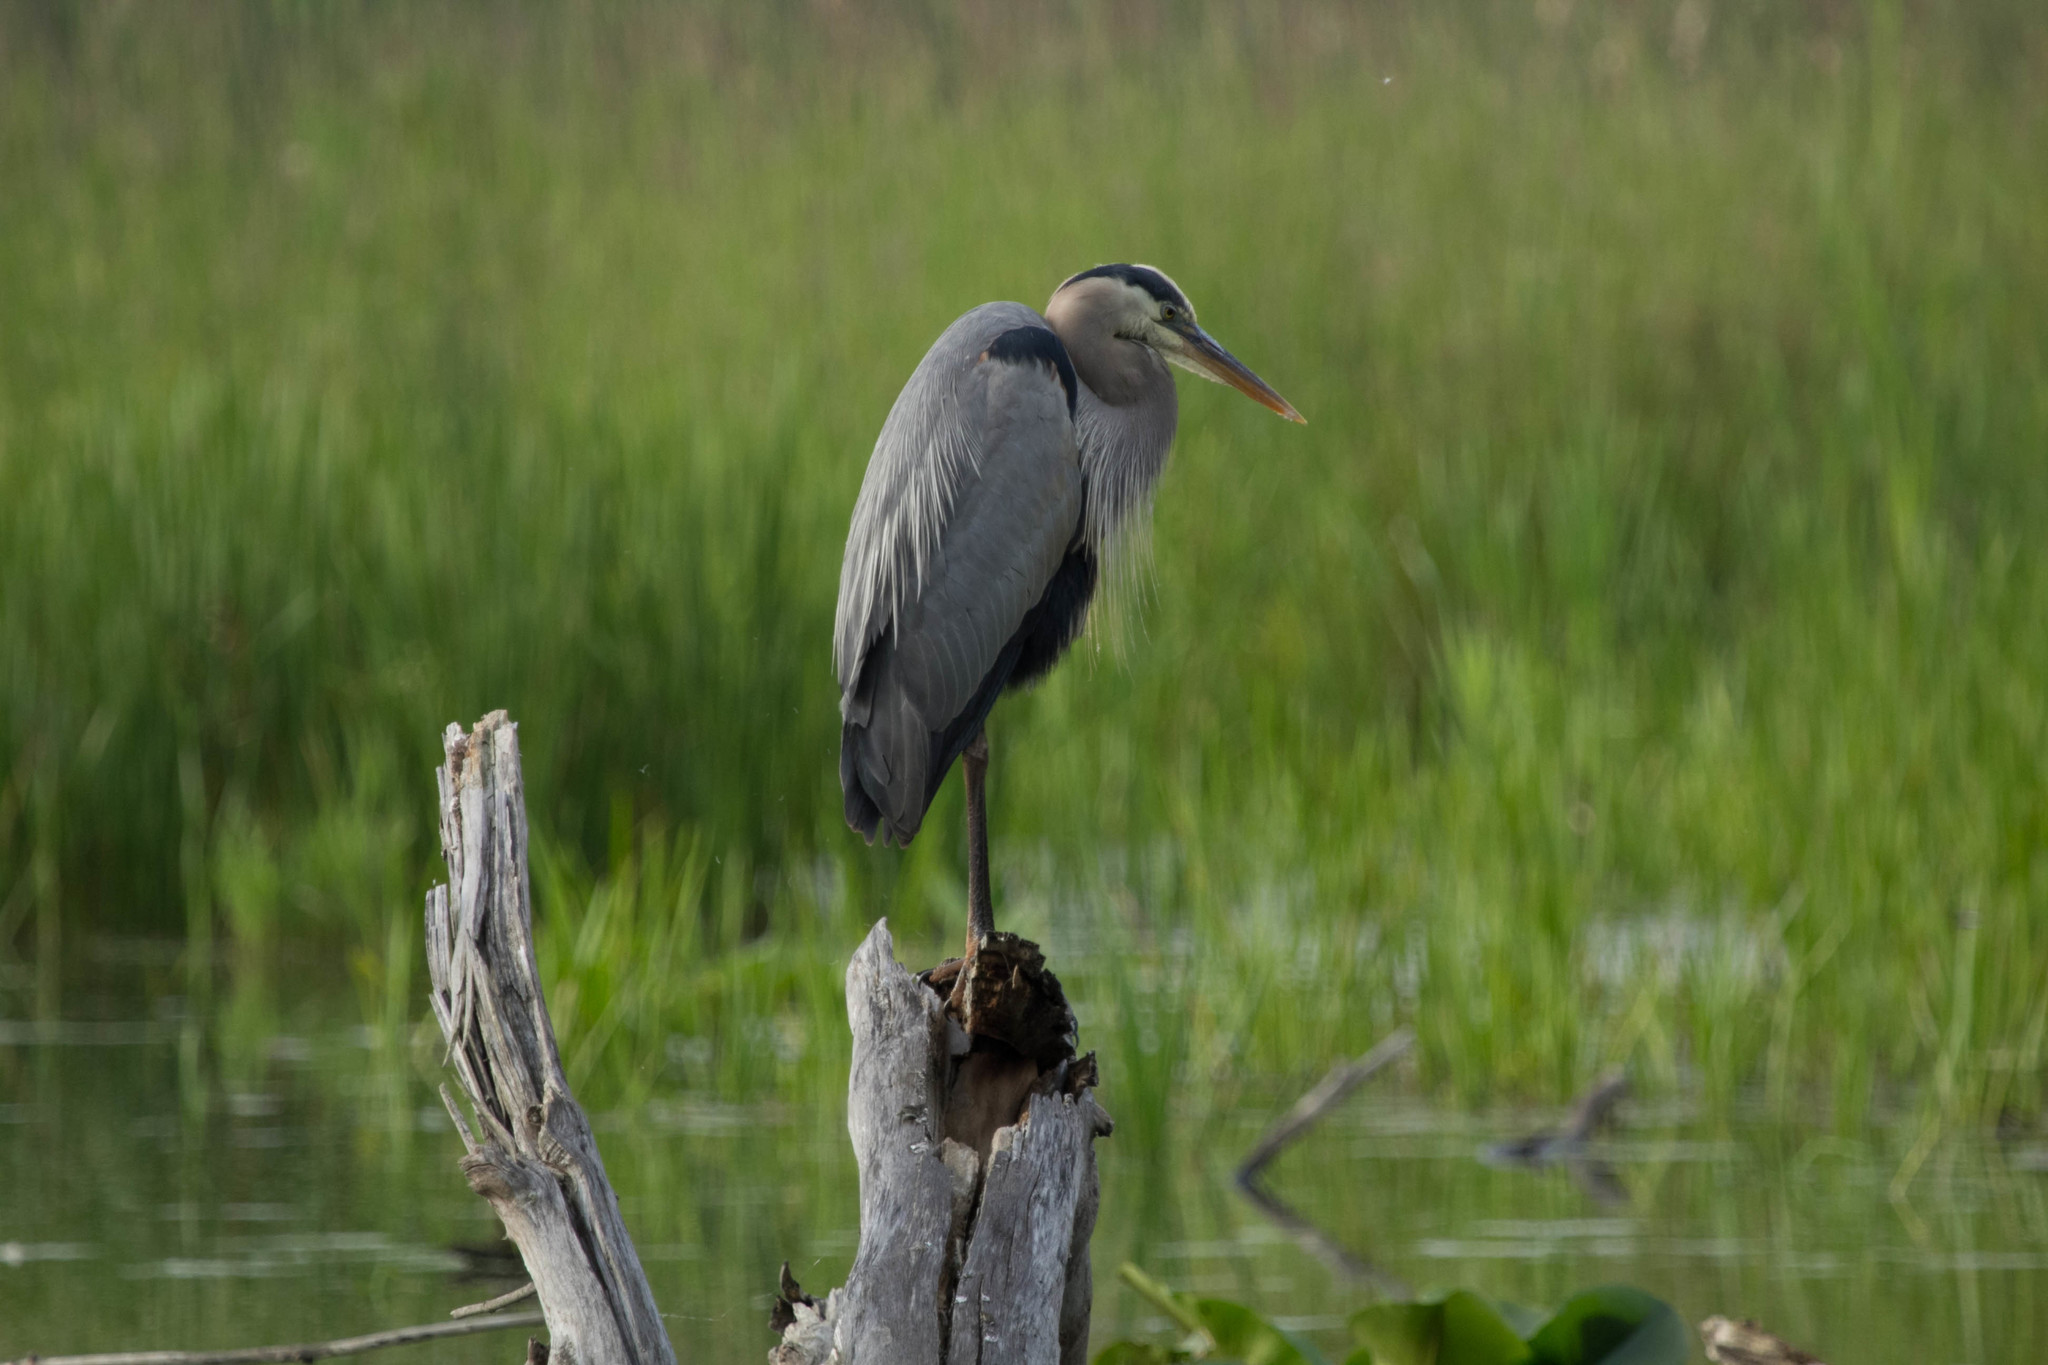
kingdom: Animalia
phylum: Chordata
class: Aves
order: Pelecaniformes
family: Ardeidae
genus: Ardea
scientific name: Ardea herodias
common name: Great blue heron
